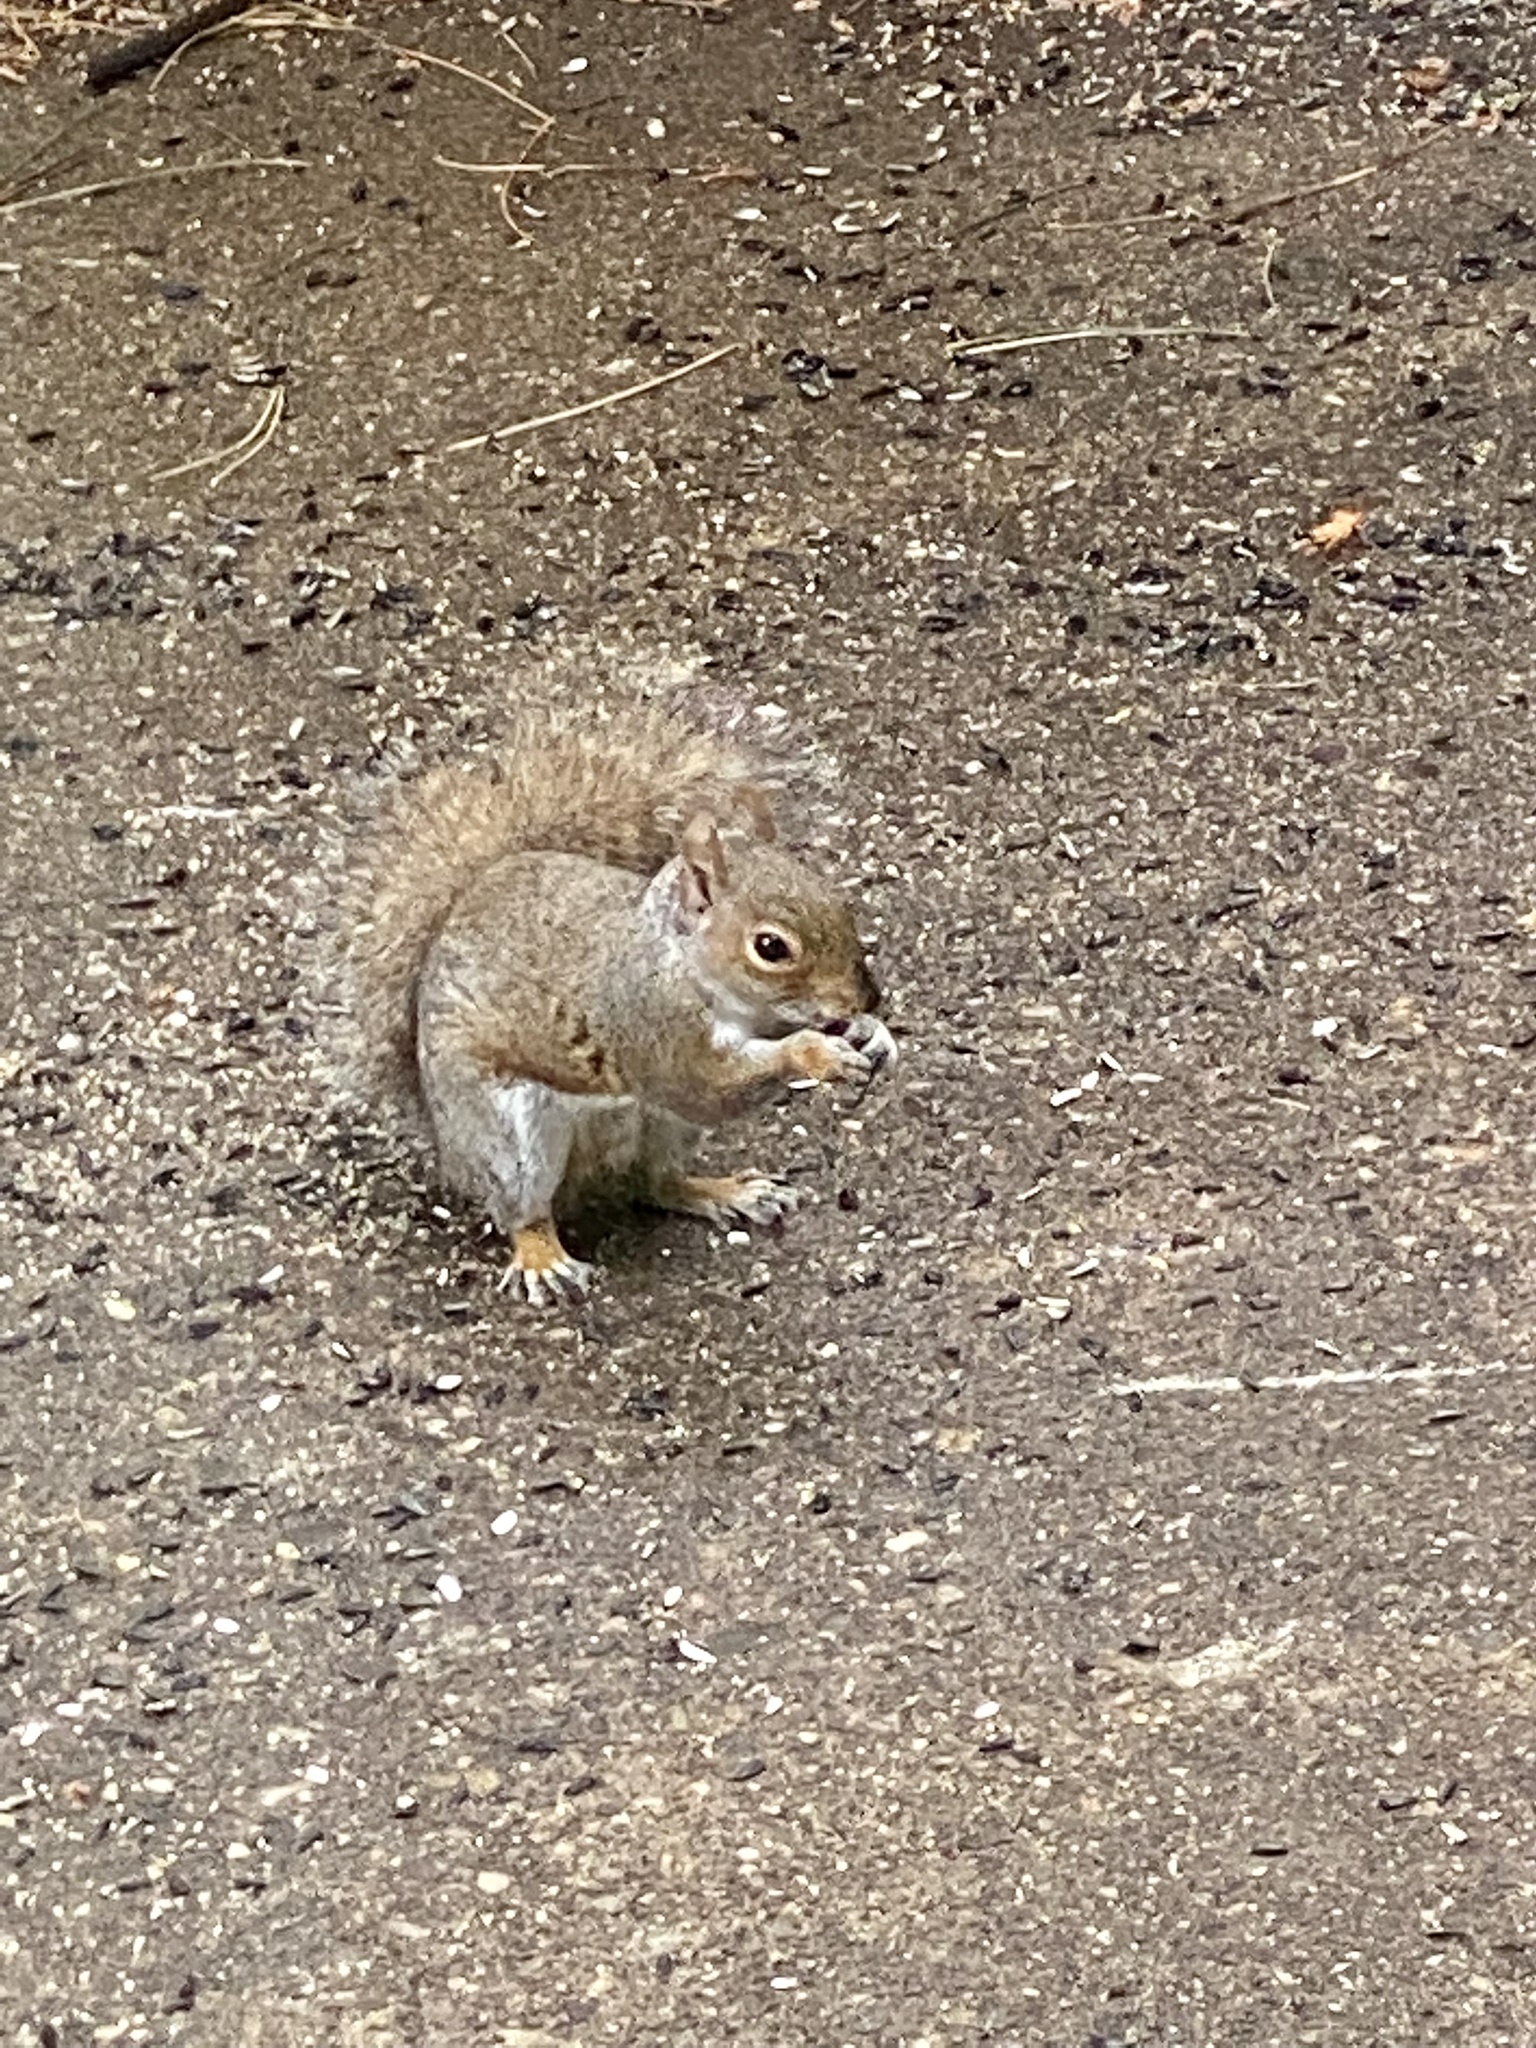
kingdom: Animalia
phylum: Chordata
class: Mammalia
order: Rodentia
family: Sciuridae
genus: Sciurus
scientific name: Sciurus carolinensis
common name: Eastern gray squirrel
